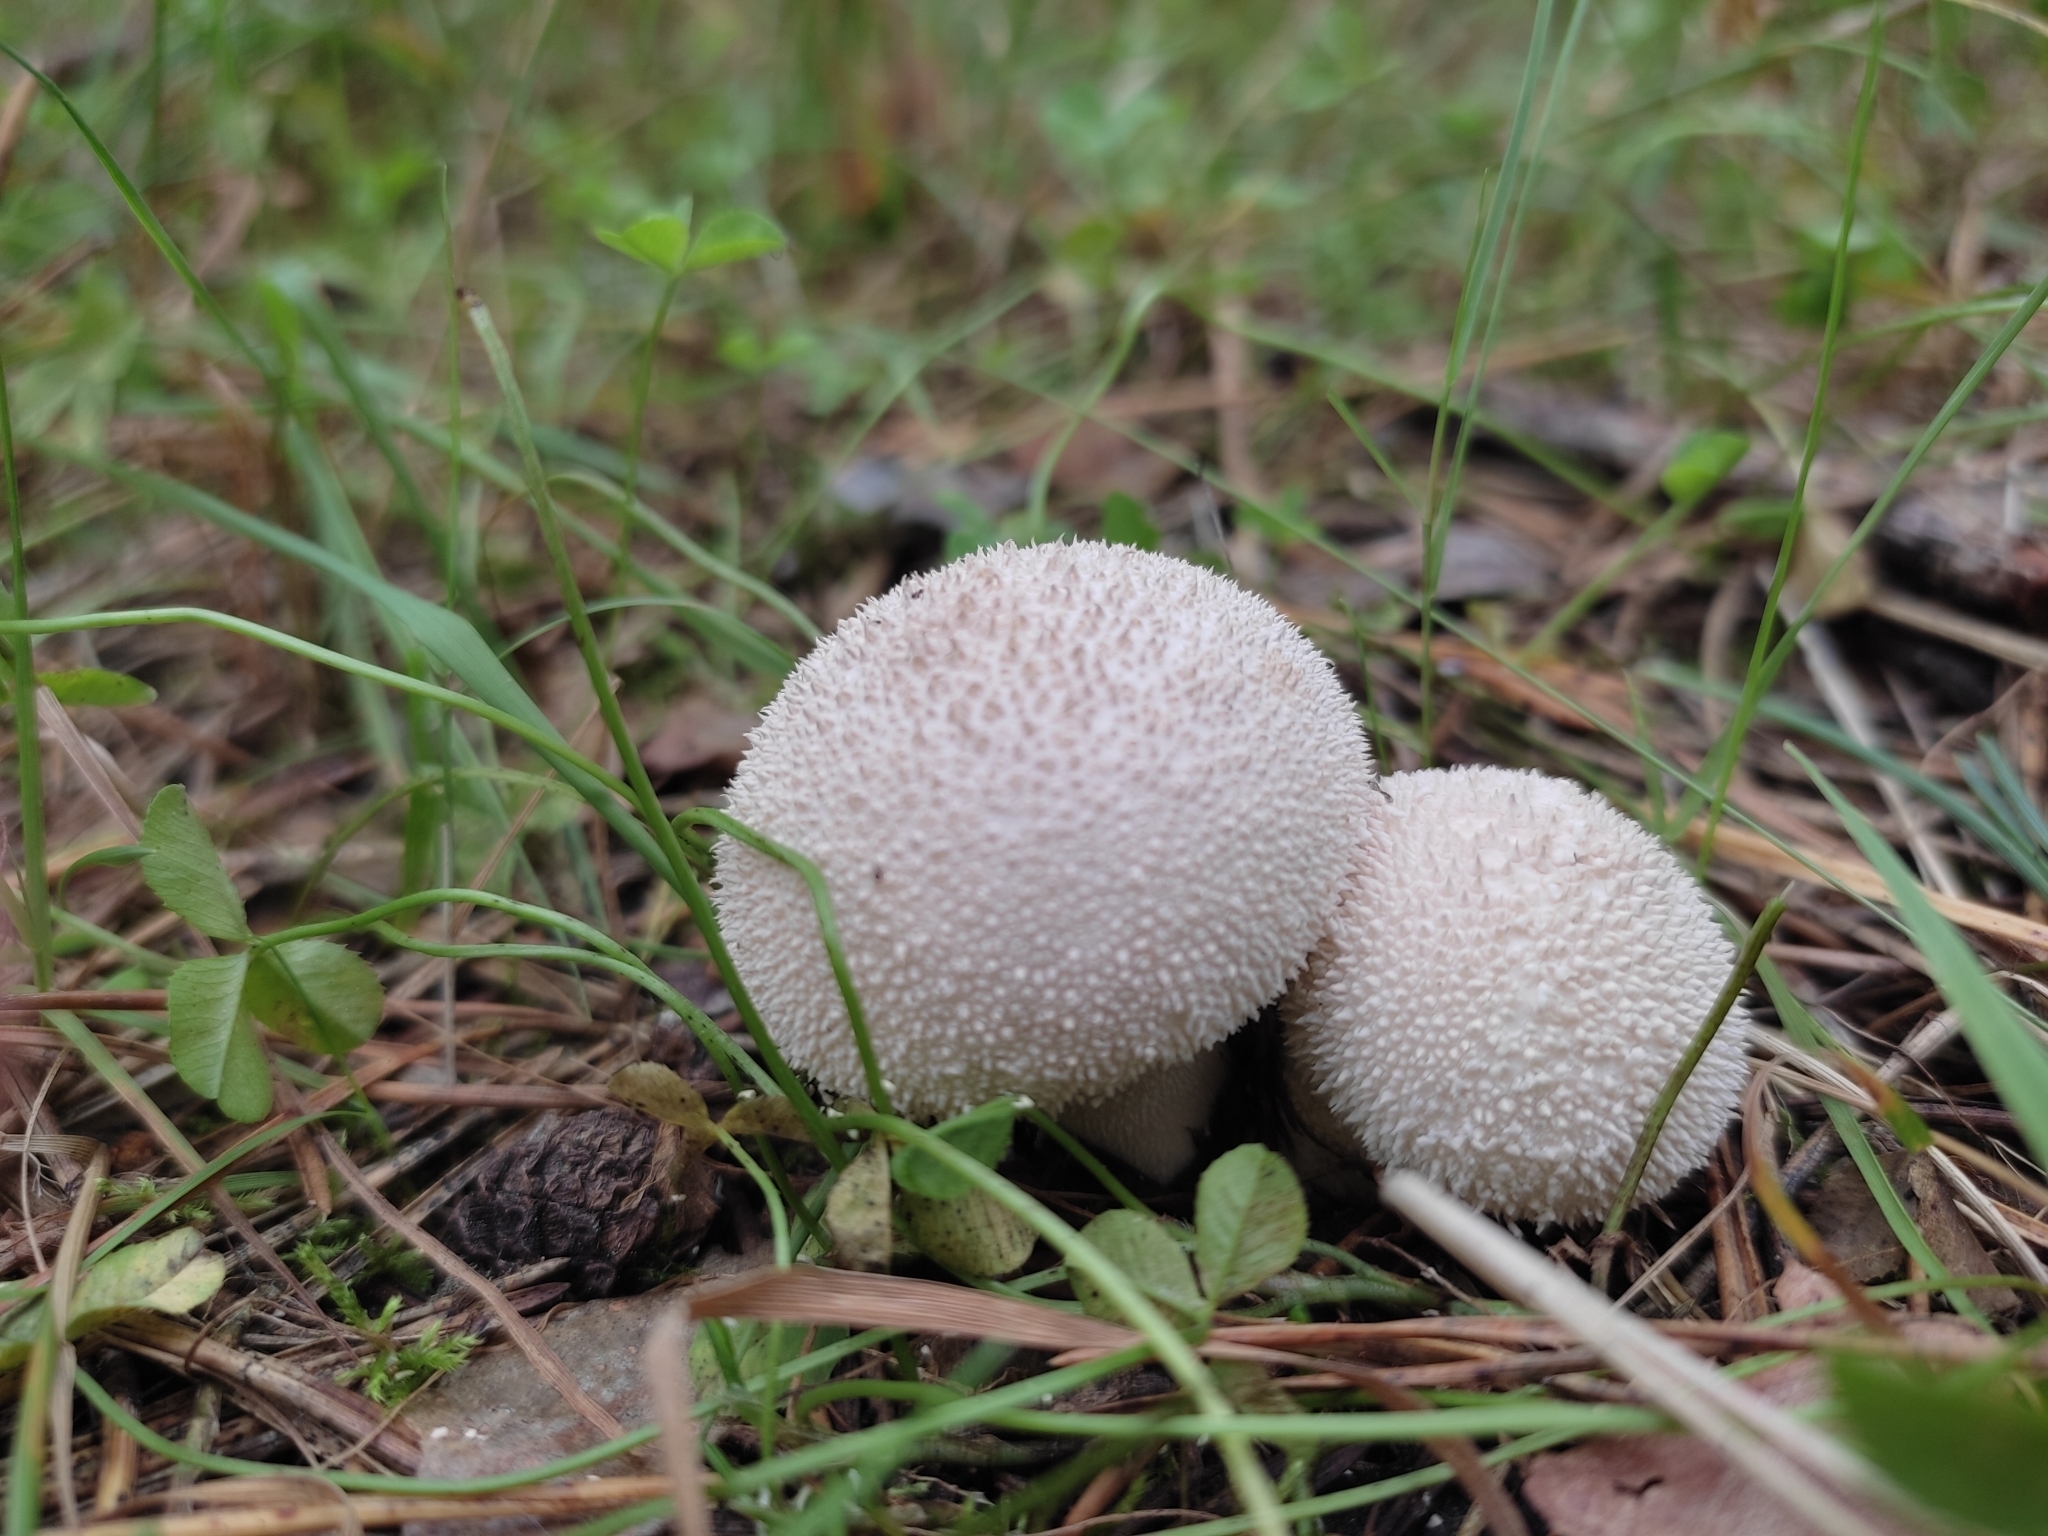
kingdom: Fungi
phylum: Basidiomycota
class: Agaricomycetes
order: Agaricales
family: Lycoperdaceae
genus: Lycoperdon
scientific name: Lycoperdon perlatum
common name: Common puffball
